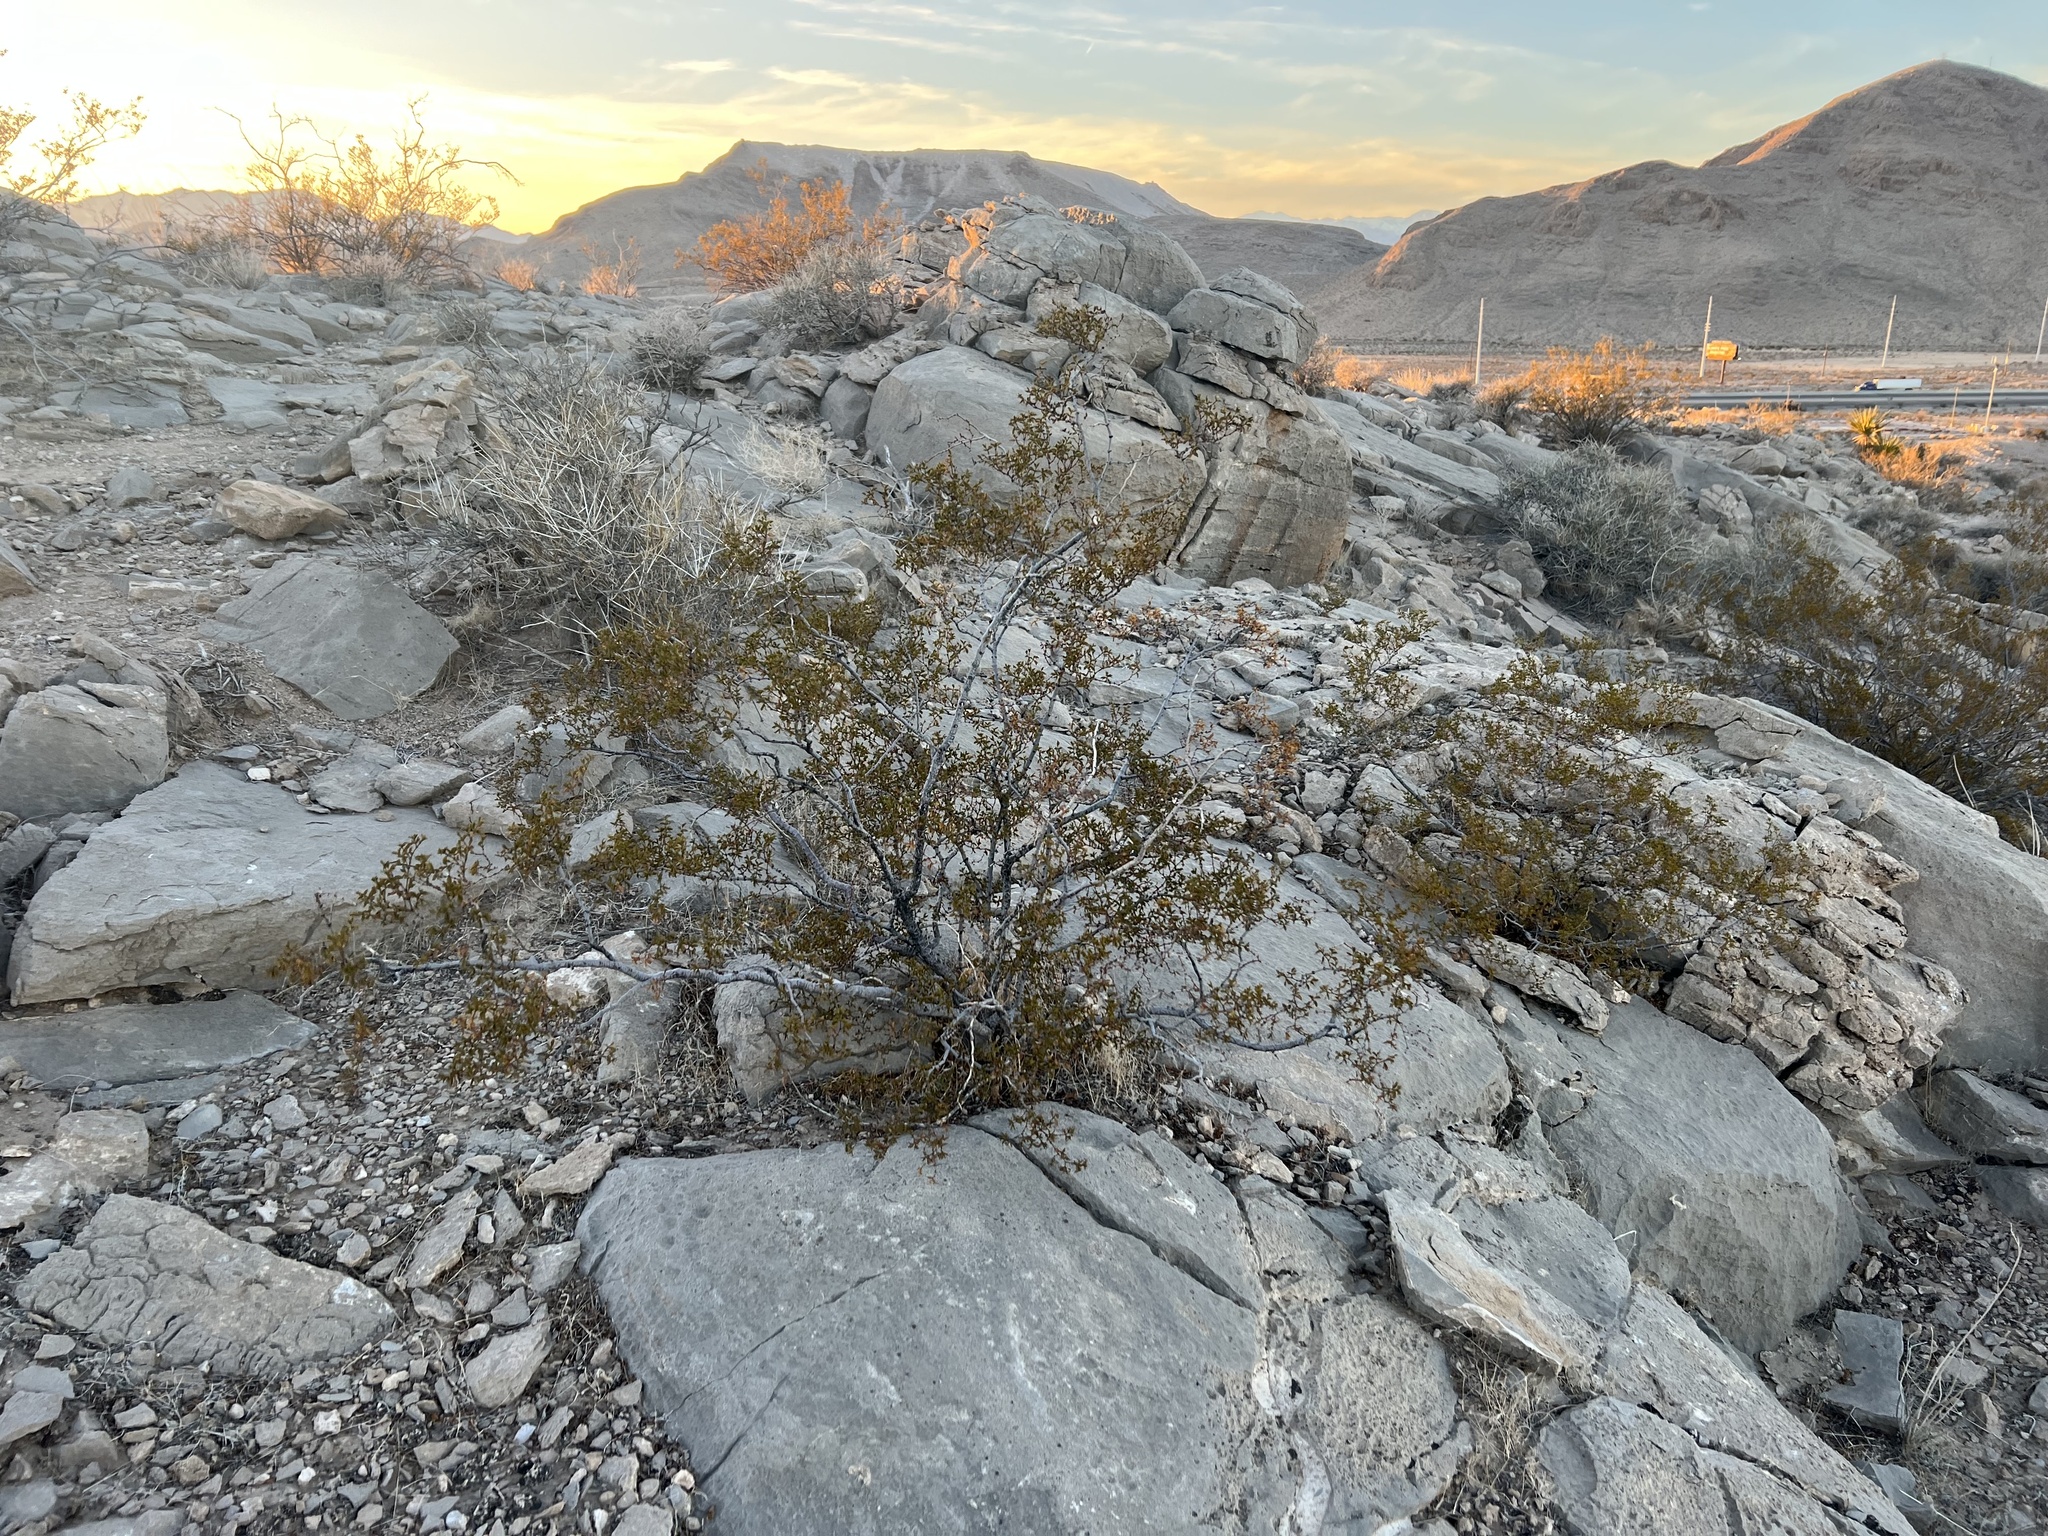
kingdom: Plantae
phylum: Tracheophyta
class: Magnoliopsida
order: Zygophyllales
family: Zygophyllaceae
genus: Larrea
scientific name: Larrea tridentata
